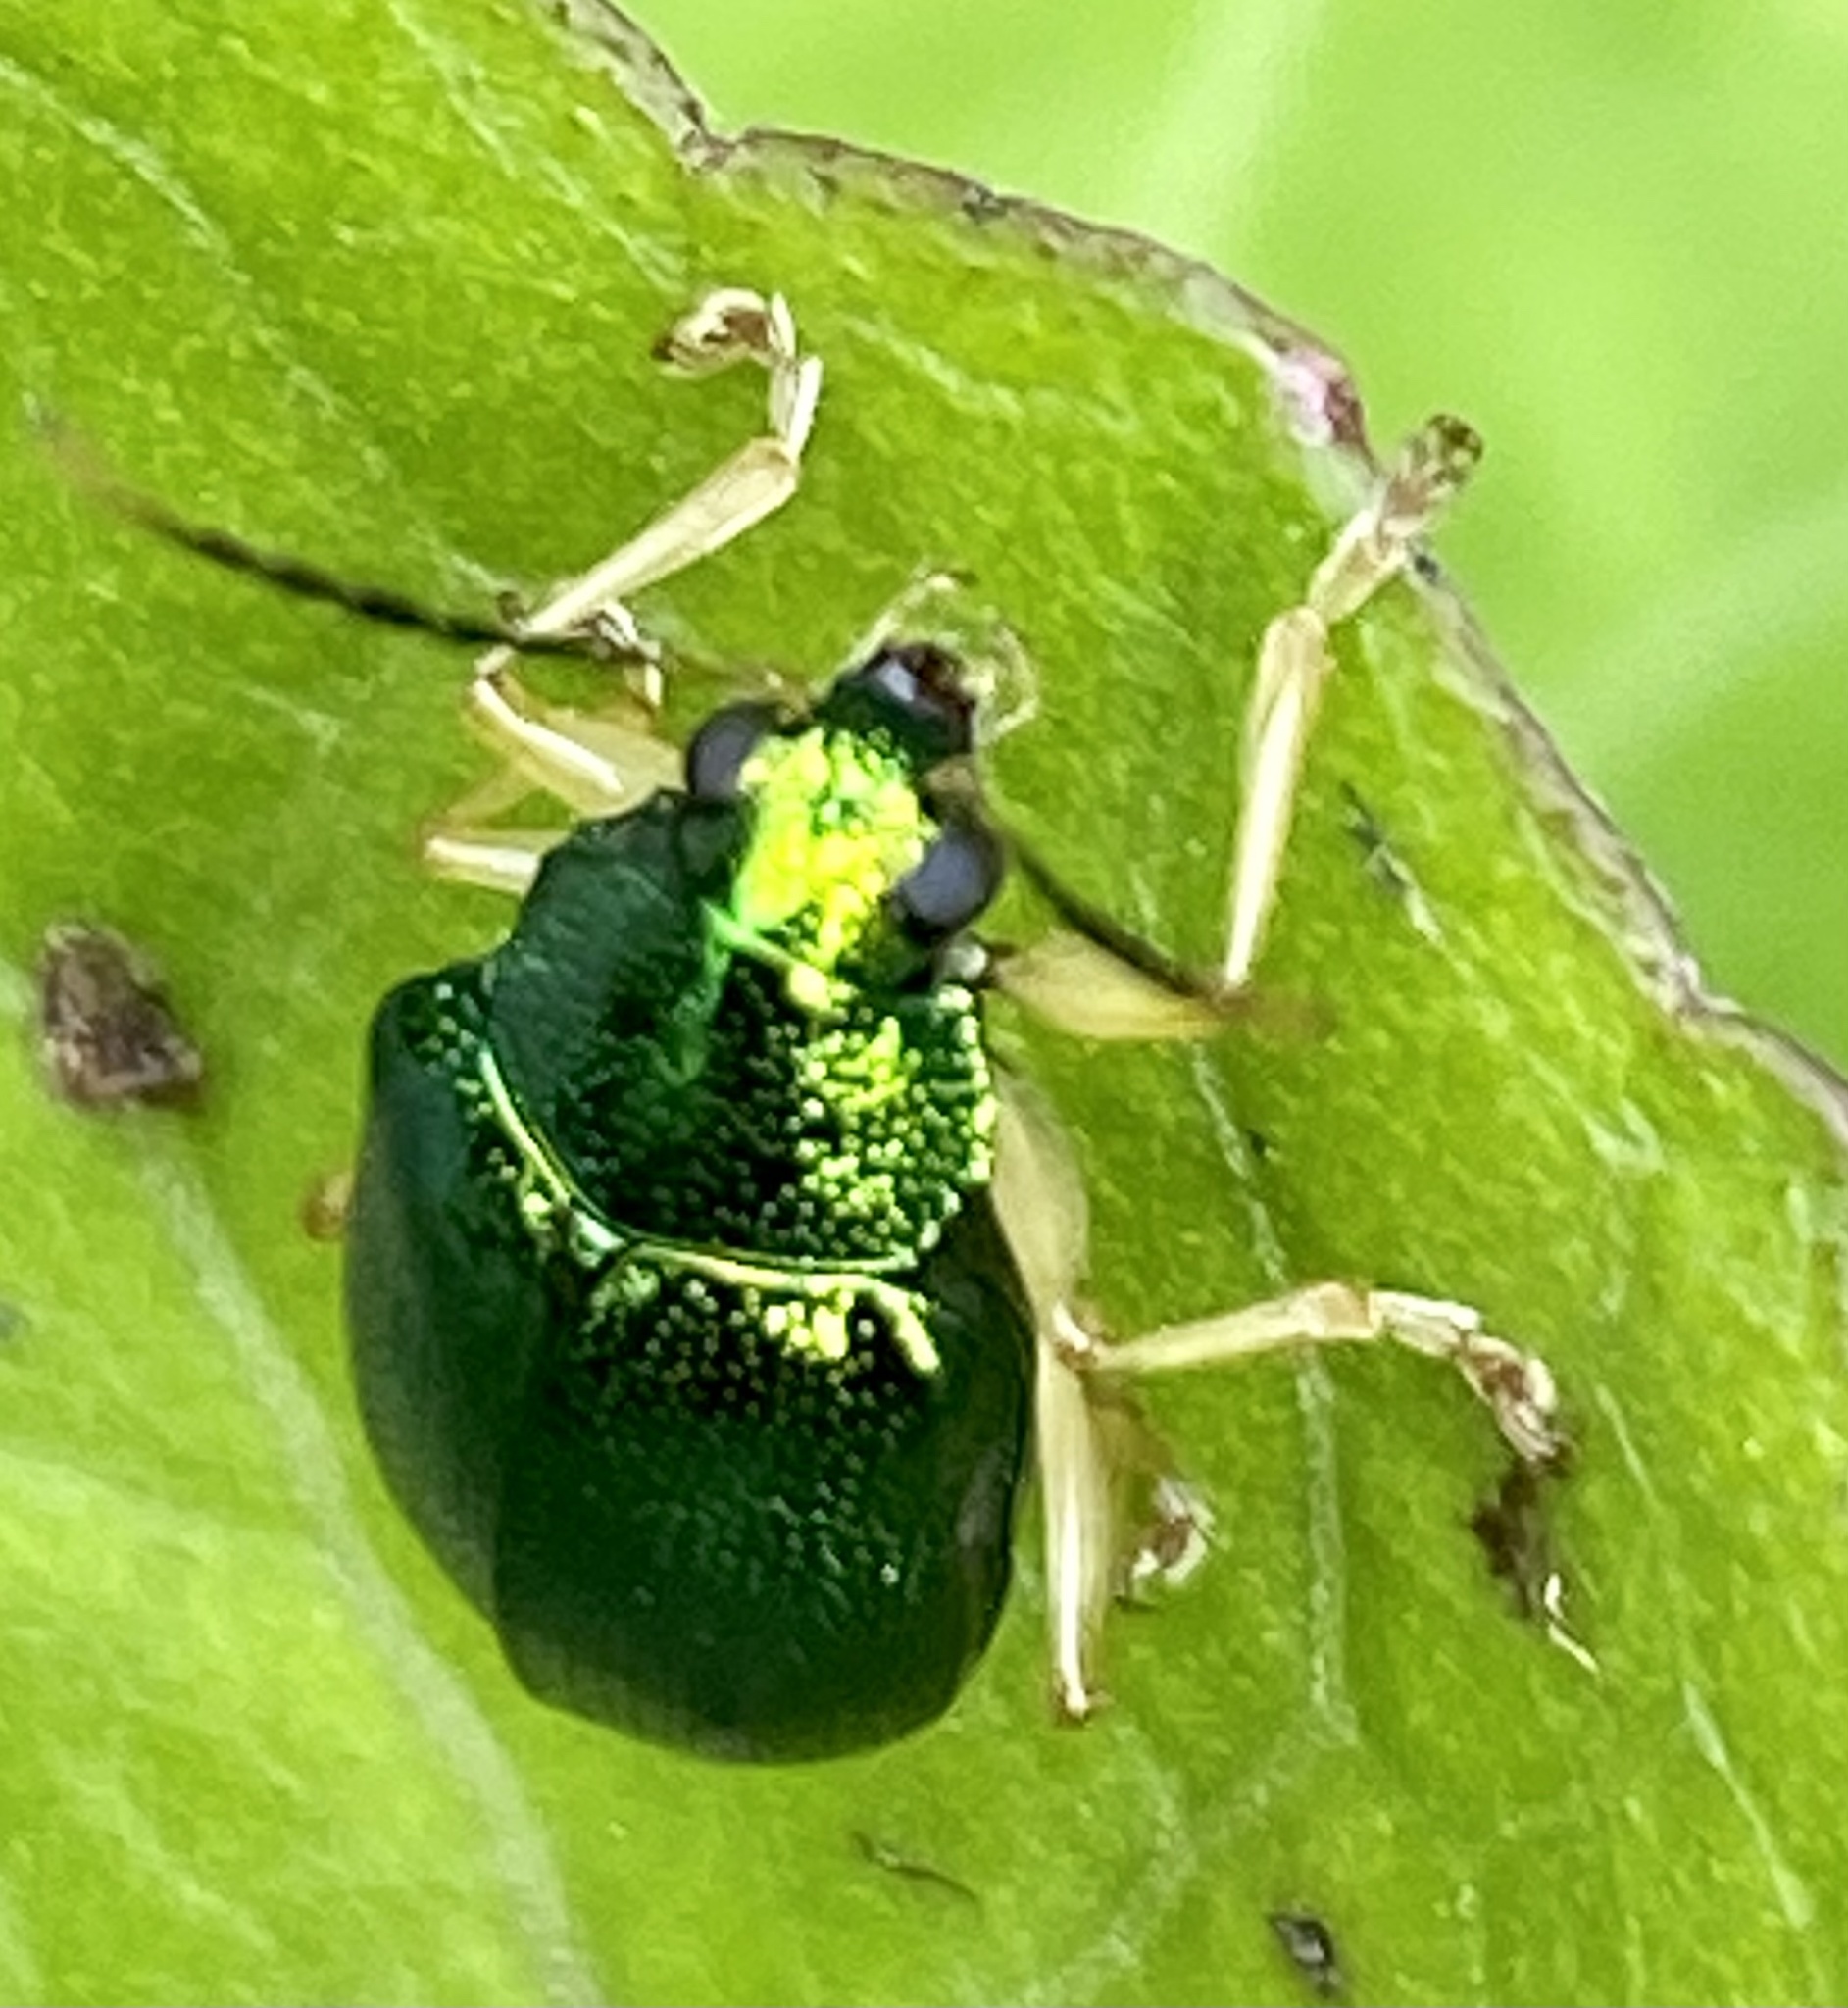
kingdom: Animalia
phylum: Arthropoda
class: Insecta
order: Coleoptera
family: Chrysomelidae
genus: Colaspis
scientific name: Colaspis
